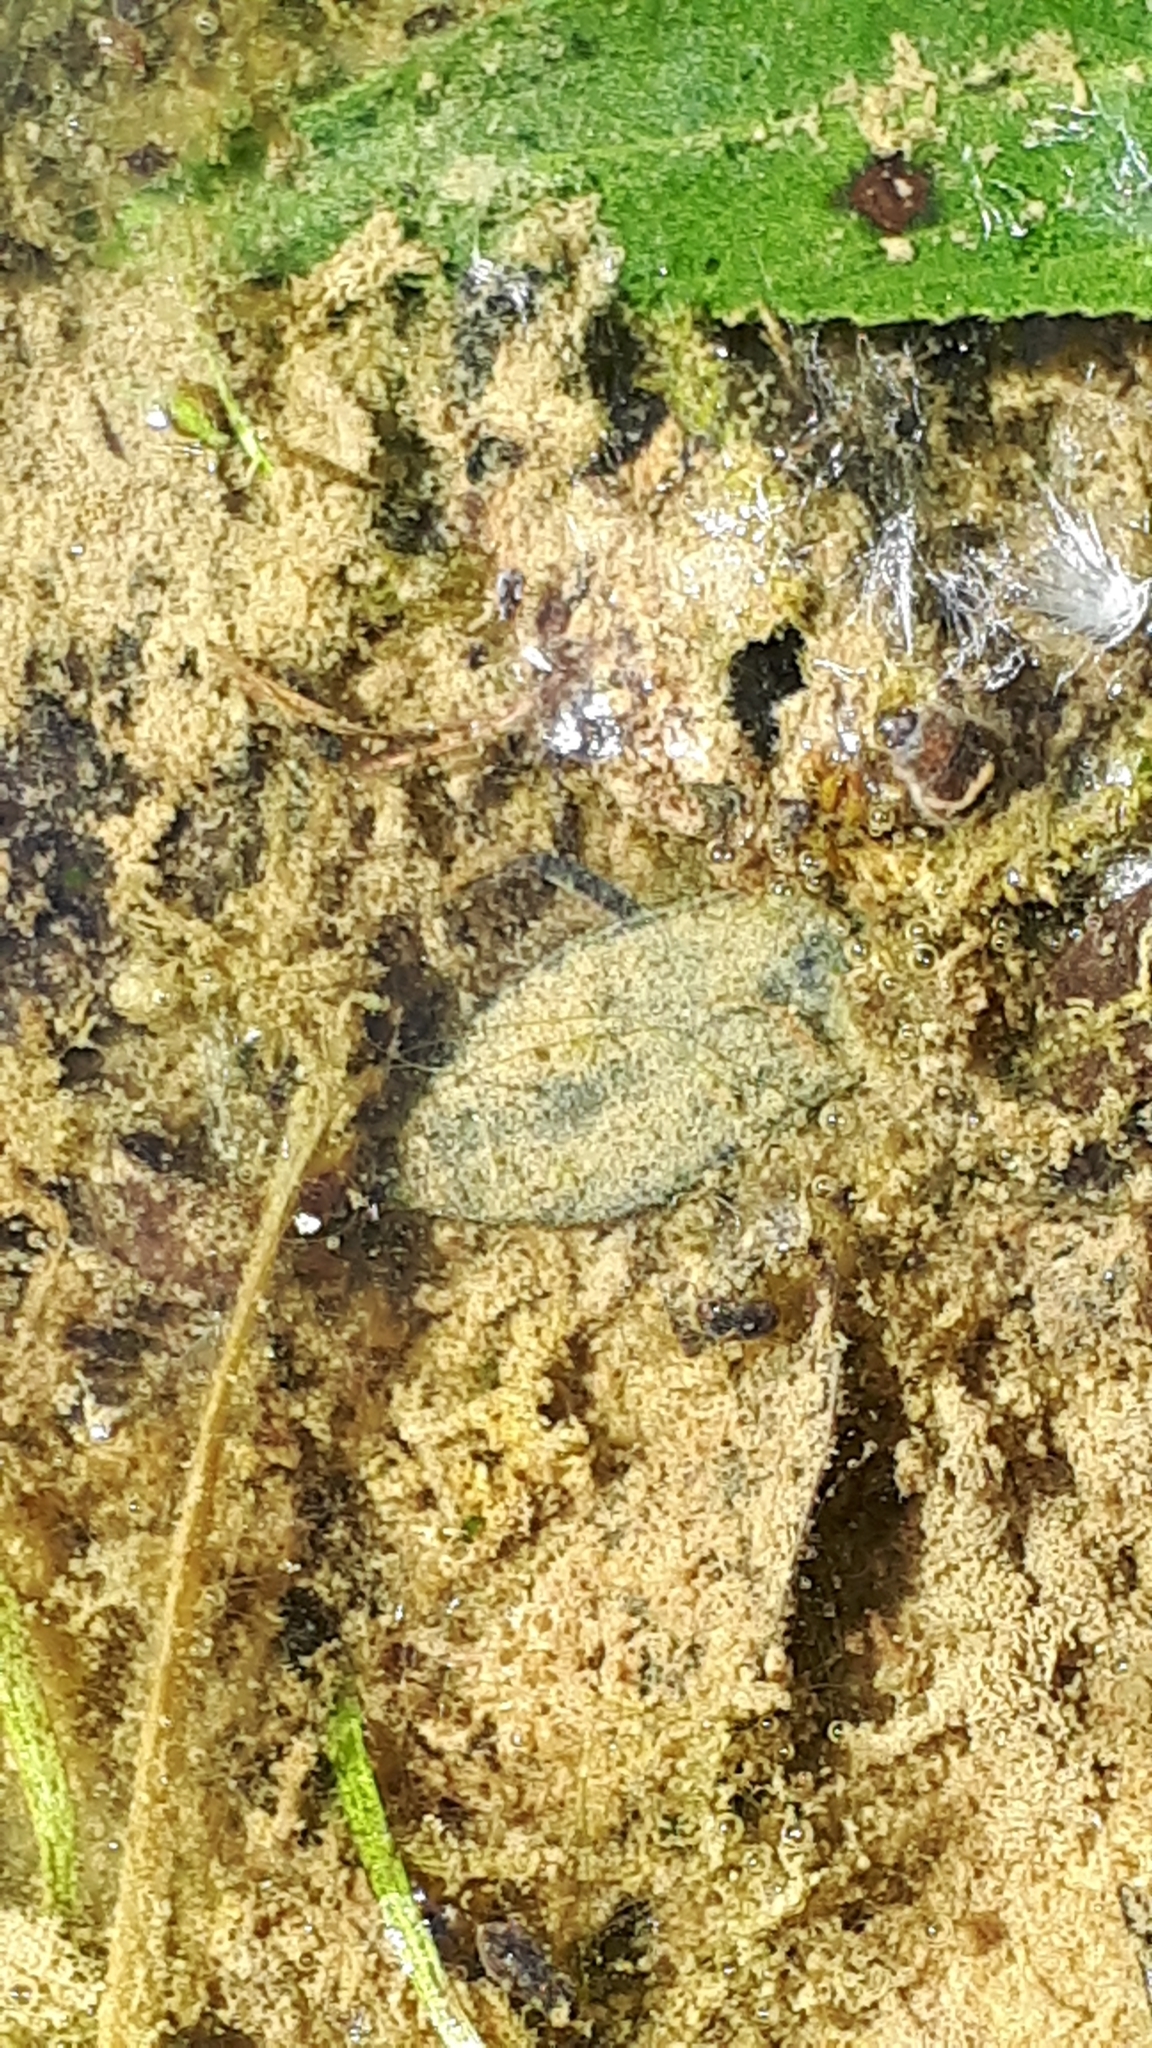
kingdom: Animalia
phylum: Arthropoda
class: Insecta
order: Hemiptera
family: Nepidae
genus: Nepa
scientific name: Nepa cinerea
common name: Water scorpion
